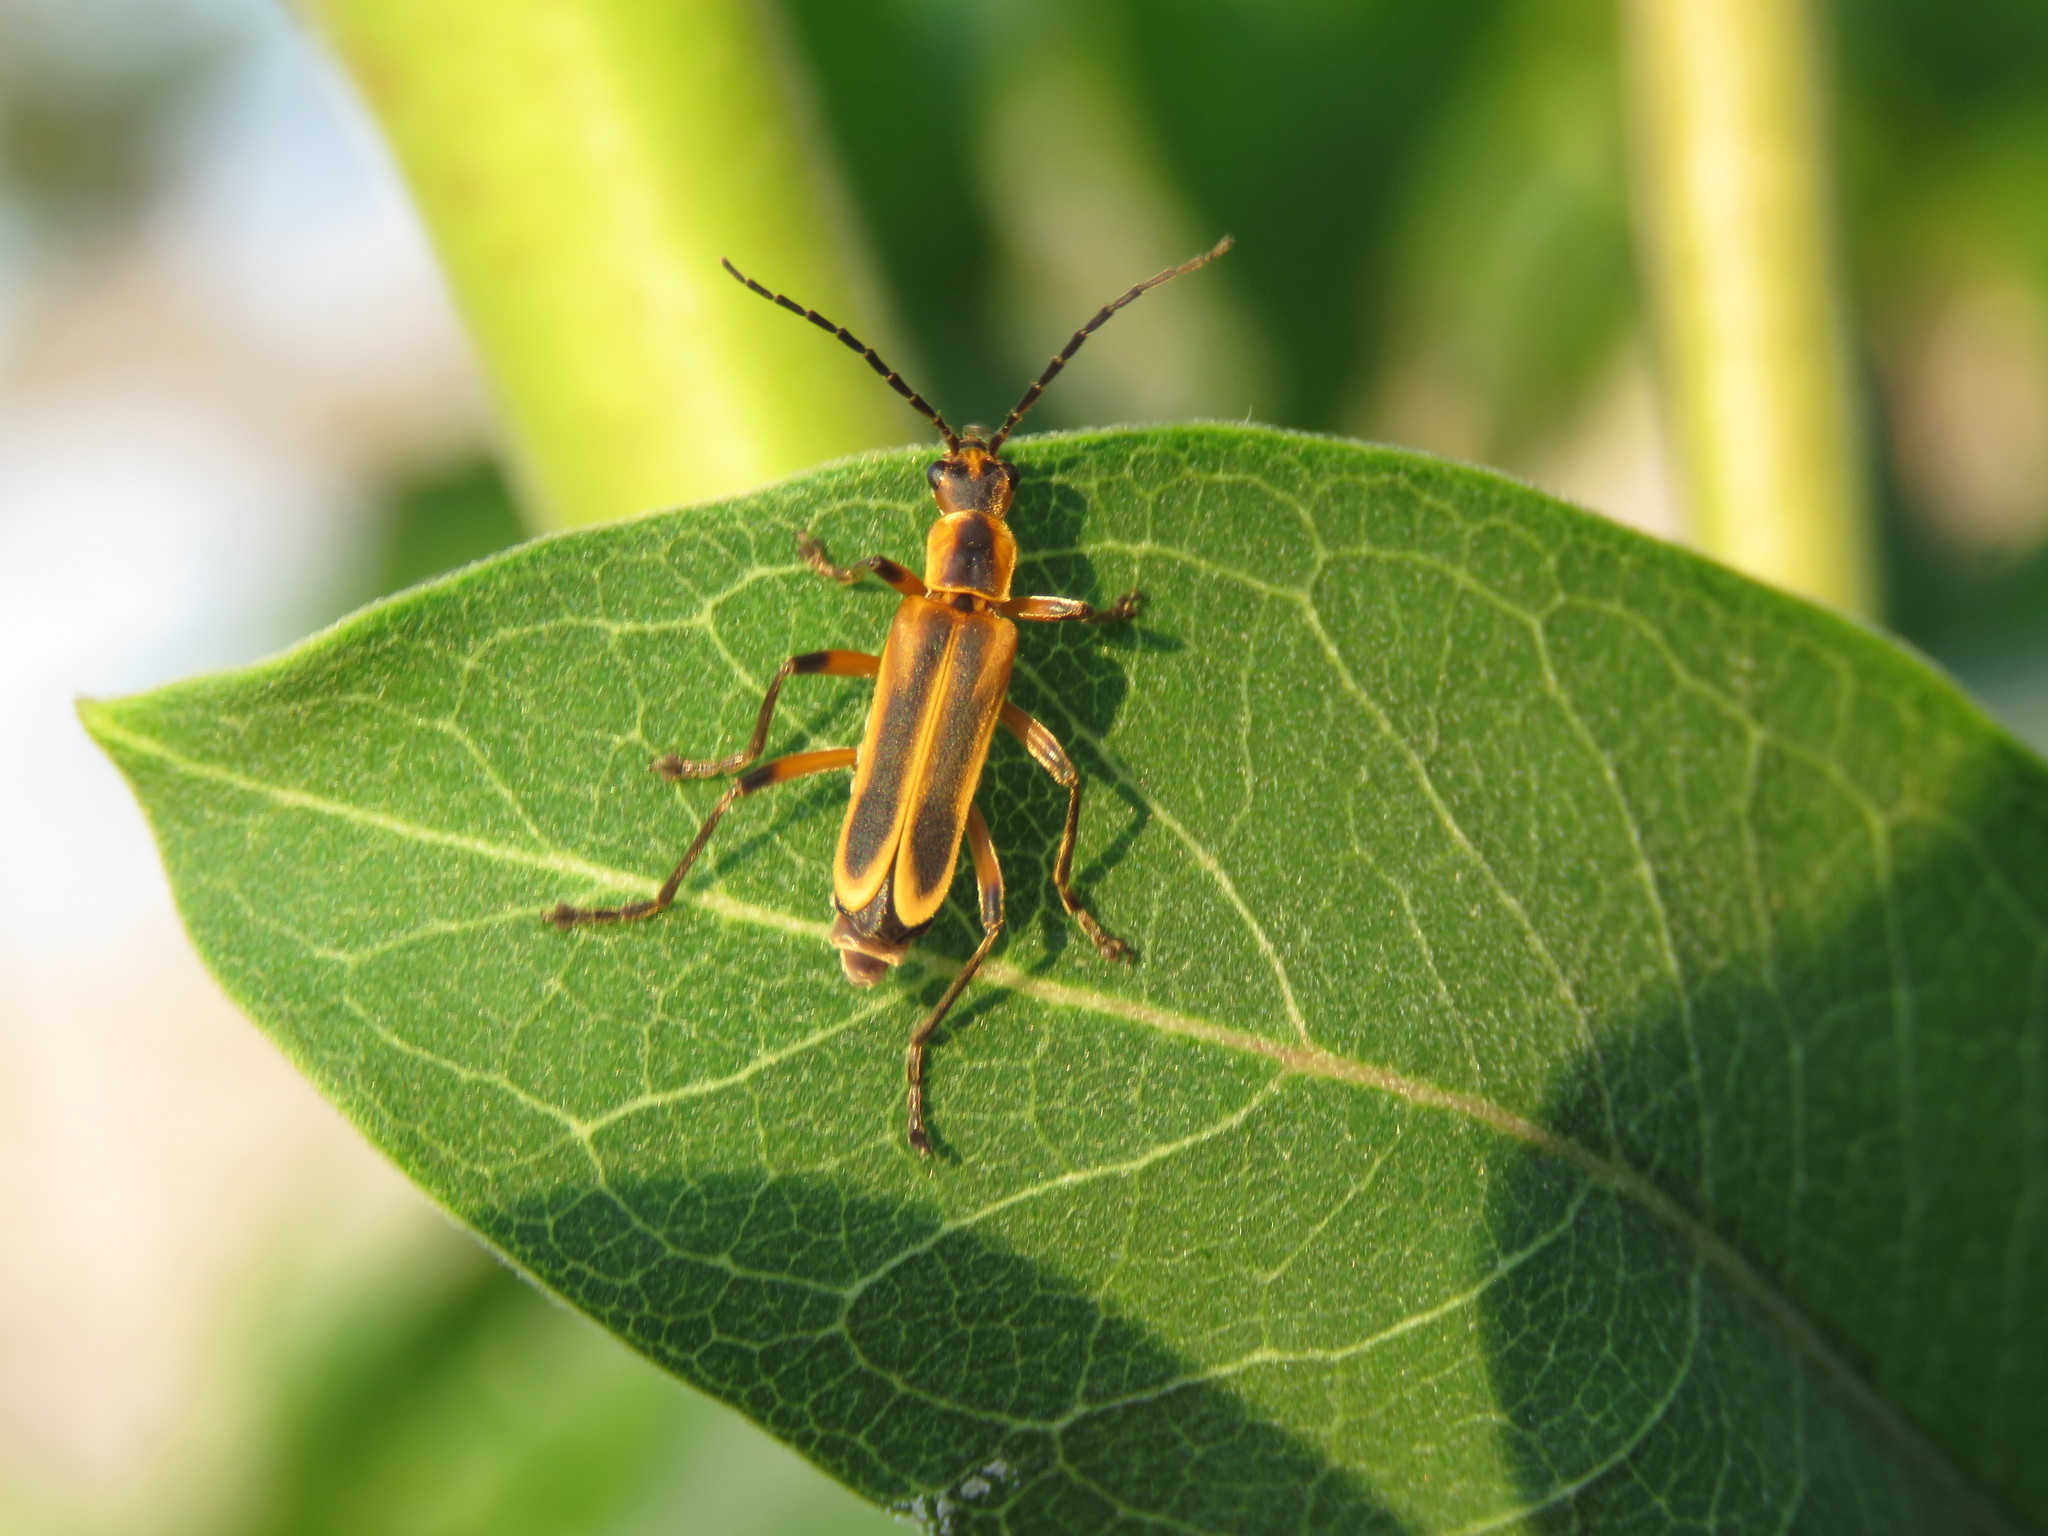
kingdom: Animalia
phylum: Arthropoda
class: Insecta
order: Coleoptera
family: Cantharidae
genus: Chauliognathus
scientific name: Chauliognathus marginatus
